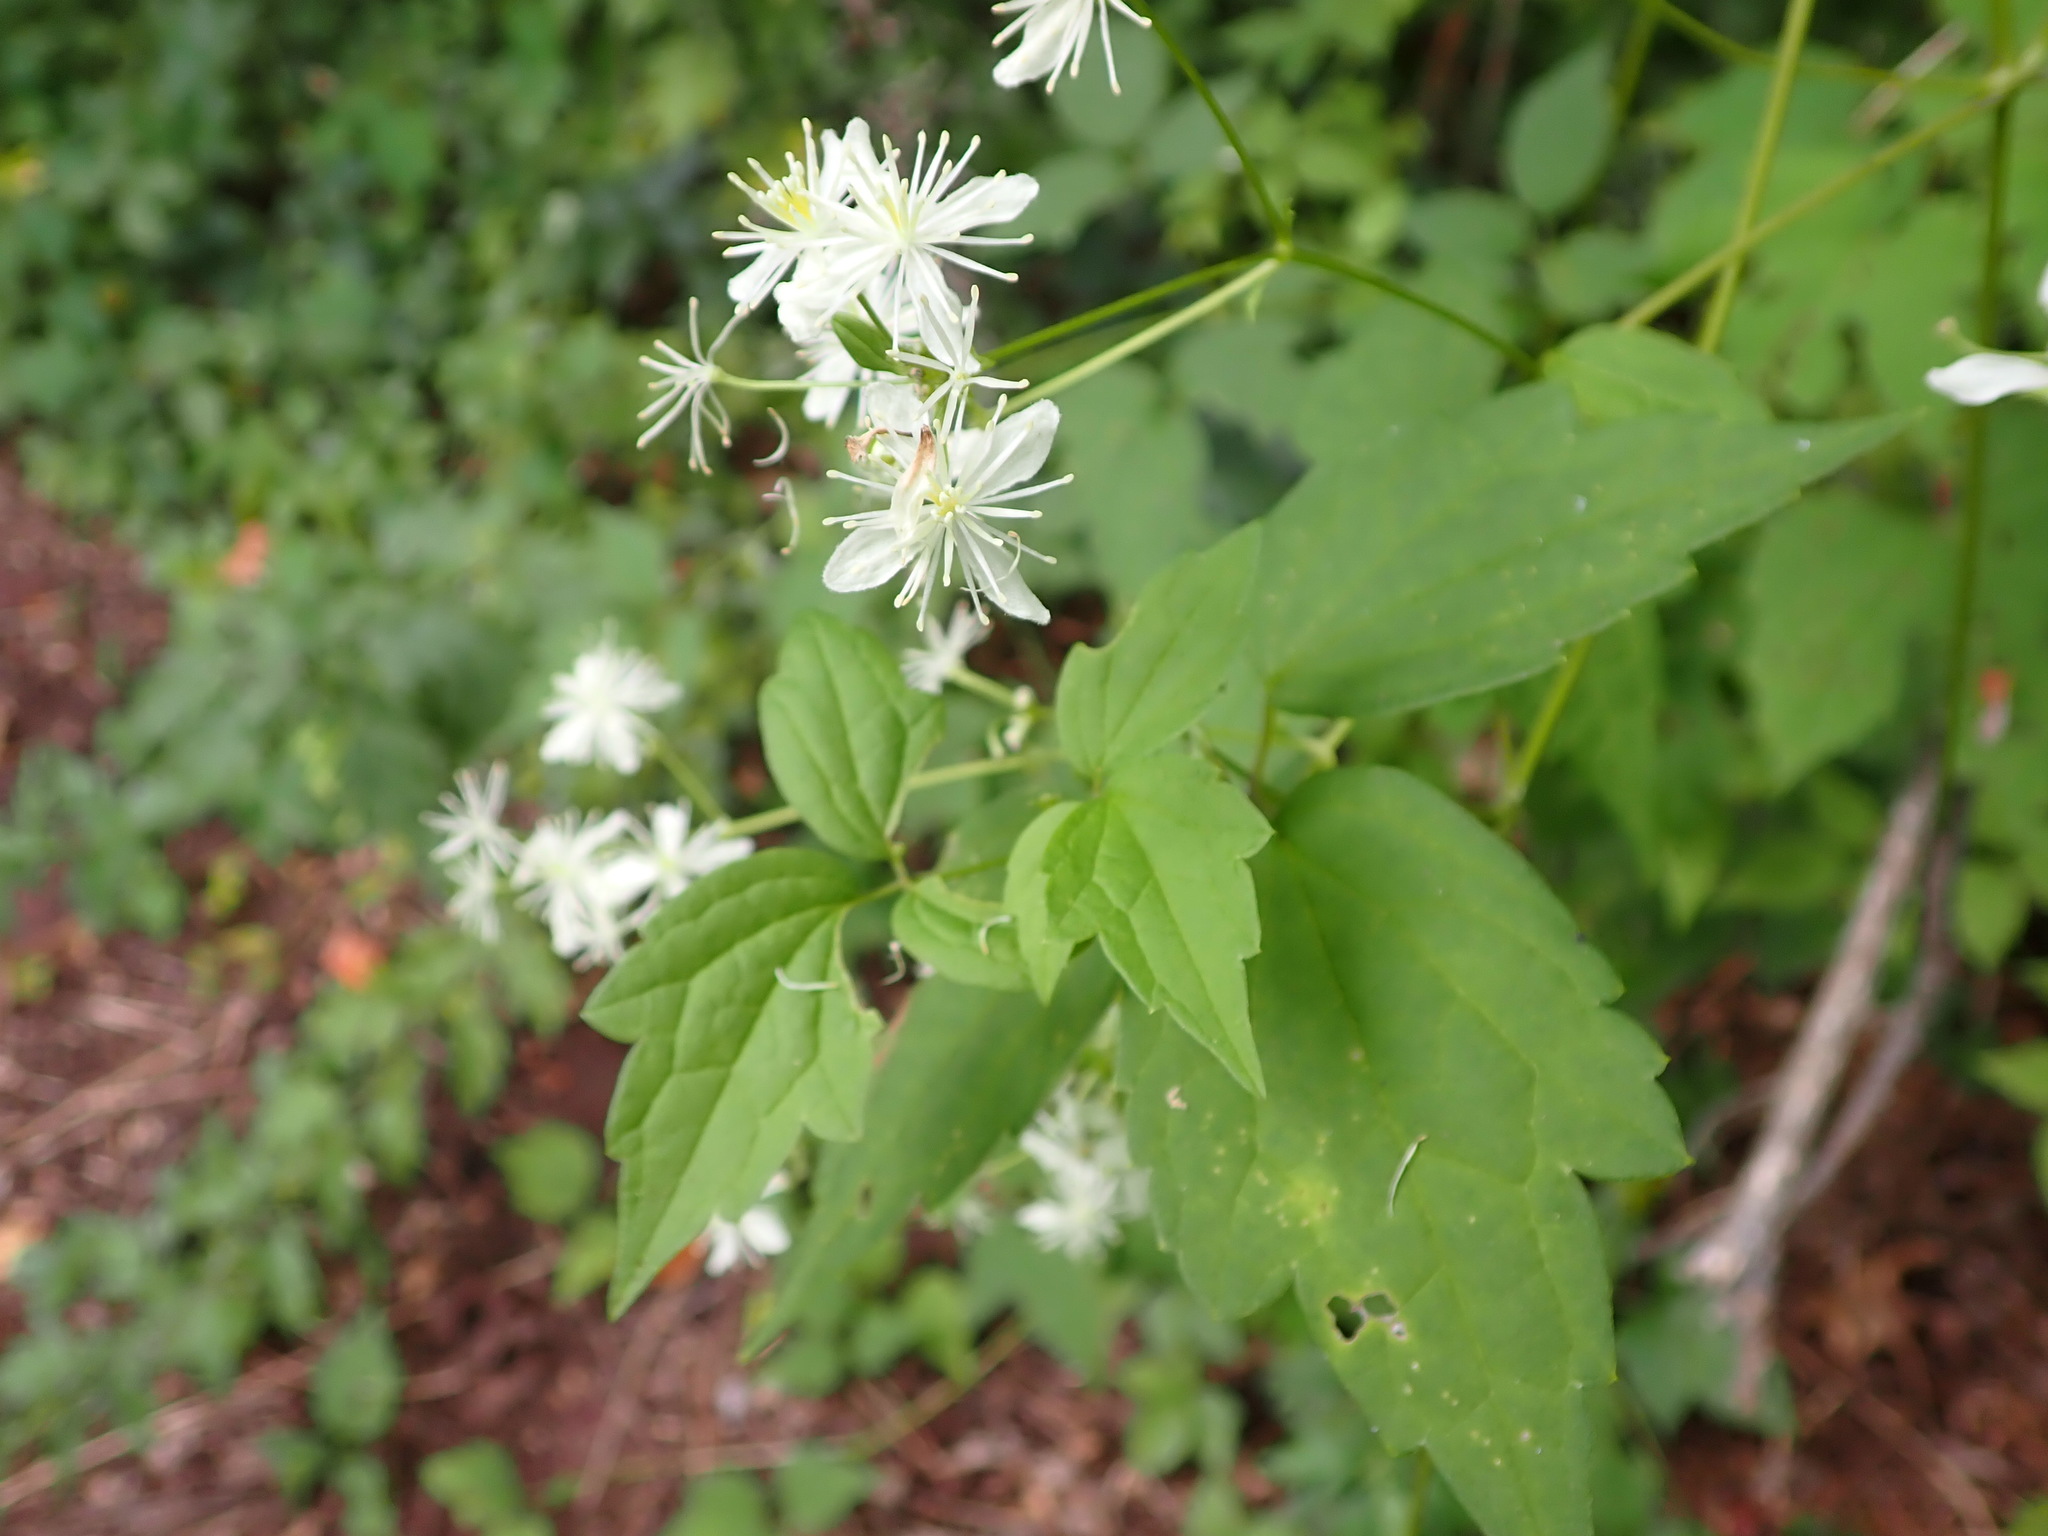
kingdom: Plantae
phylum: Tracheophyta
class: Magnoliopsida
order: Ranunculales
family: Ranunculaceae
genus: Clematis
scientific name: Clematis virginiana
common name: Virgin's-bower
